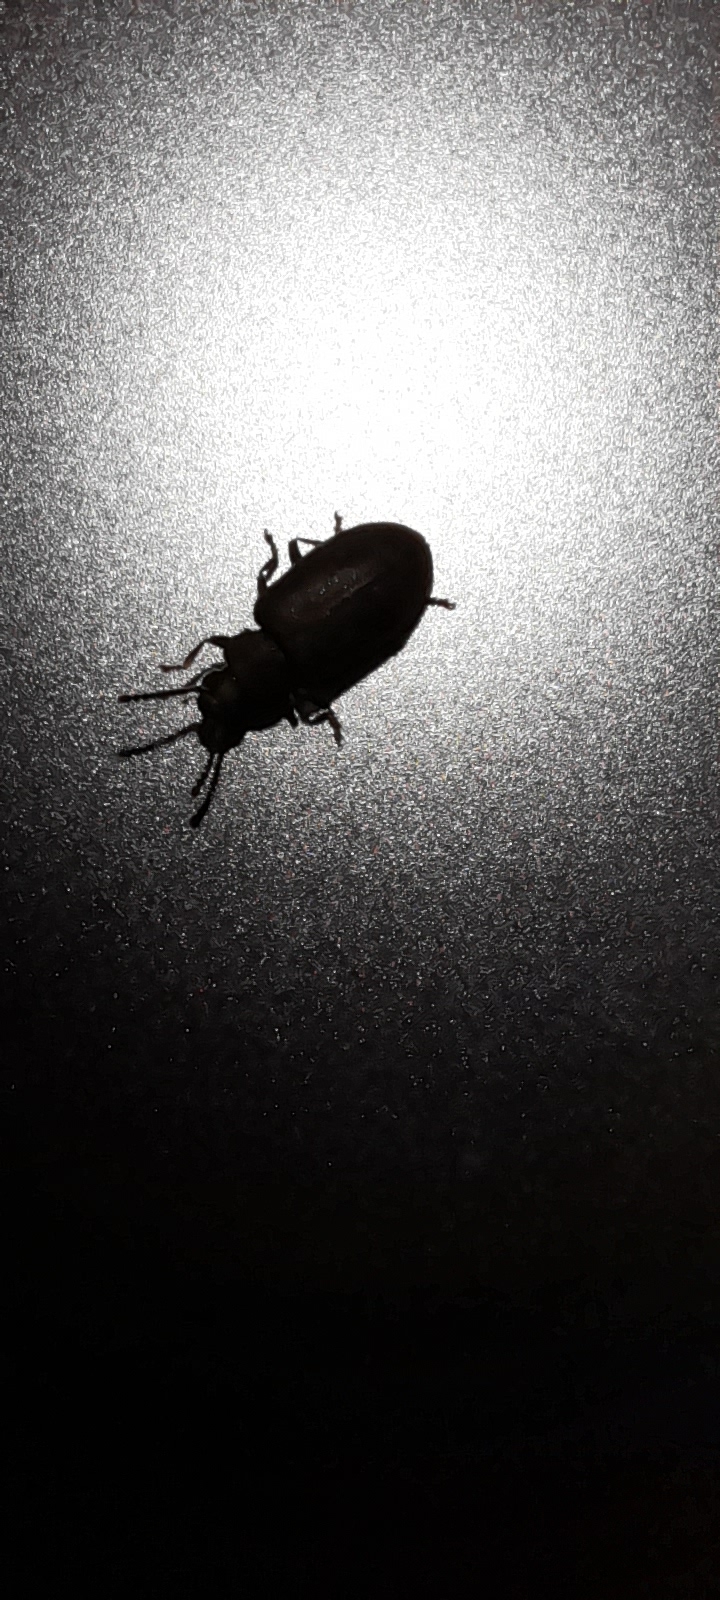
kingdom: Animalia
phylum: Arthropoda
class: Insecta
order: Coleoptera
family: Tenebrionidae
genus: Hegeter
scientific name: Hegeter tristis
